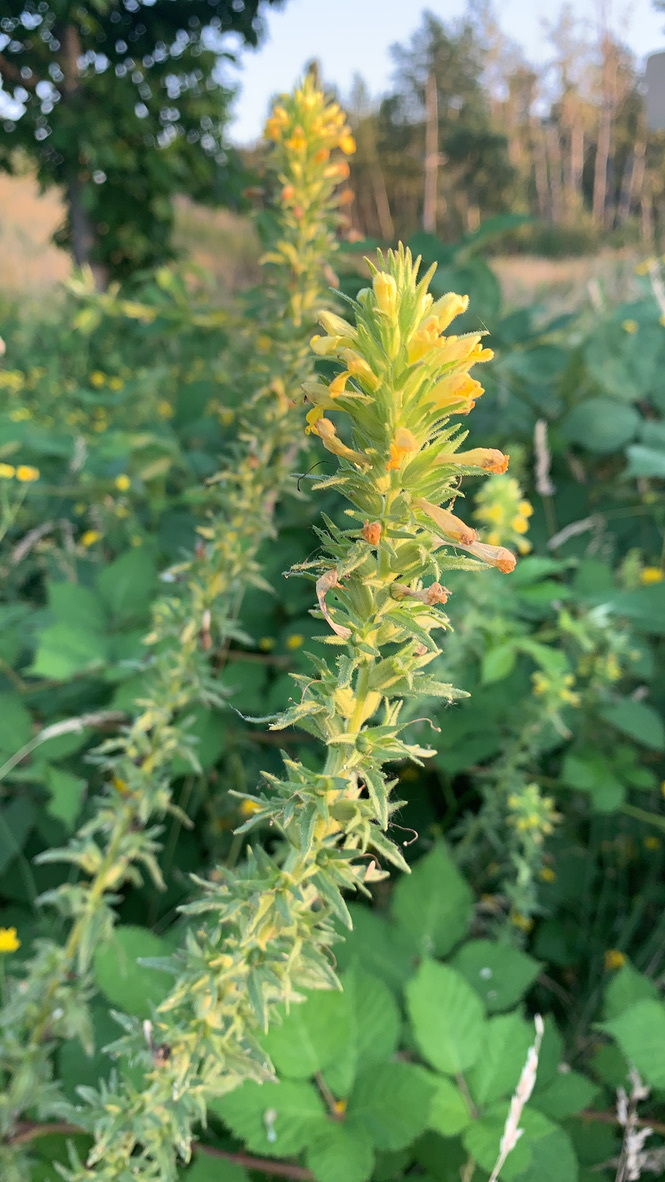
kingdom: Plantae
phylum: Tracheophyta
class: Magnoliopsida
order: Lamiales
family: Orobanchaceae
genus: Bellardia
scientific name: Bellardia viscosa
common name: Sticky parentucellia
